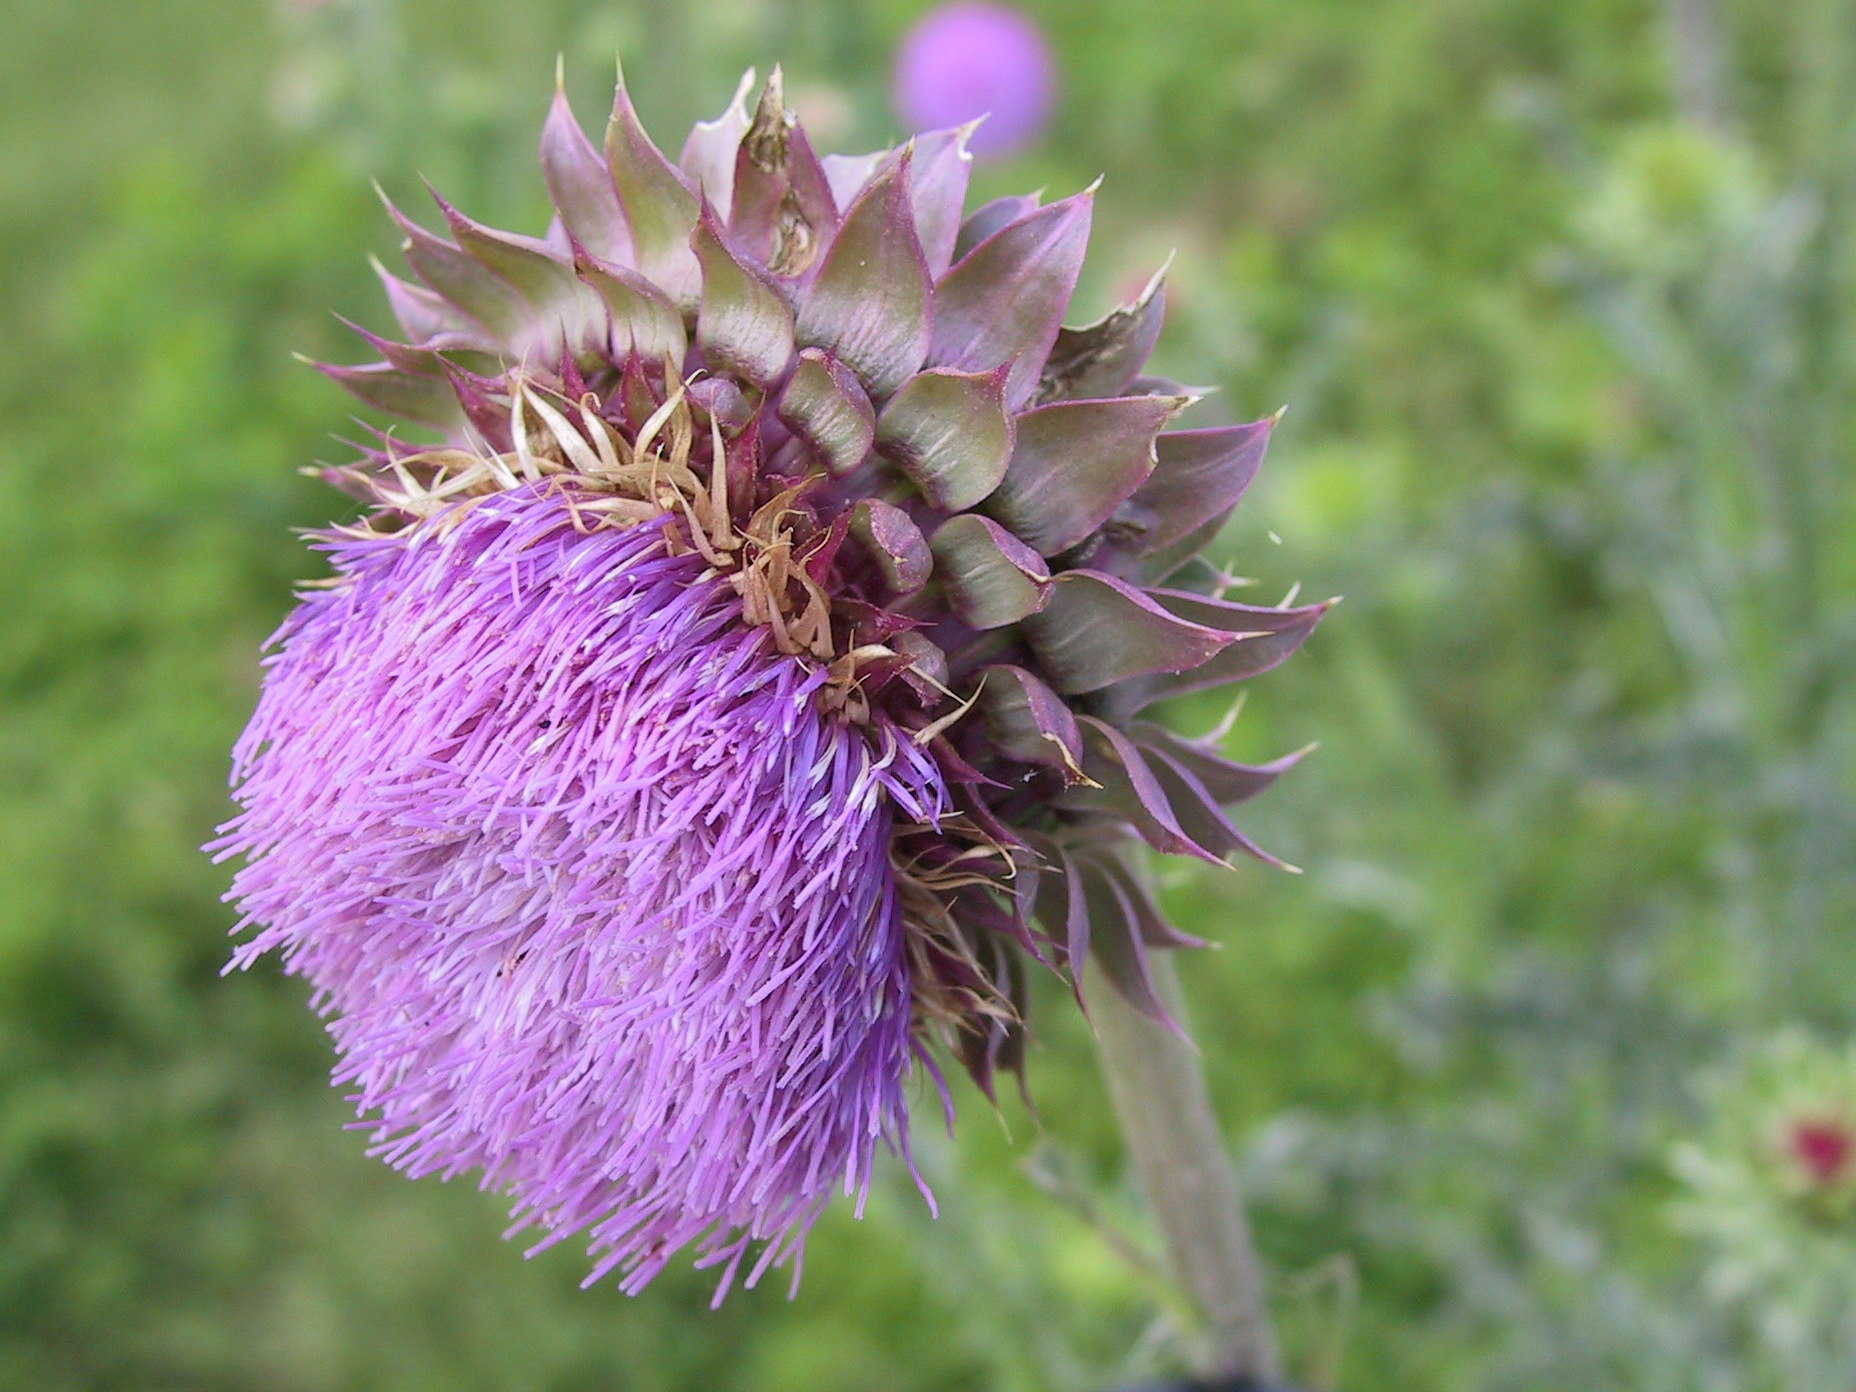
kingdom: Plantae
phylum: Tracheophyta
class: Magnoliopsida
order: Asterales
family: Asteraceae
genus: Carduus
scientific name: Carduus nutans
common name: Musk thistle
